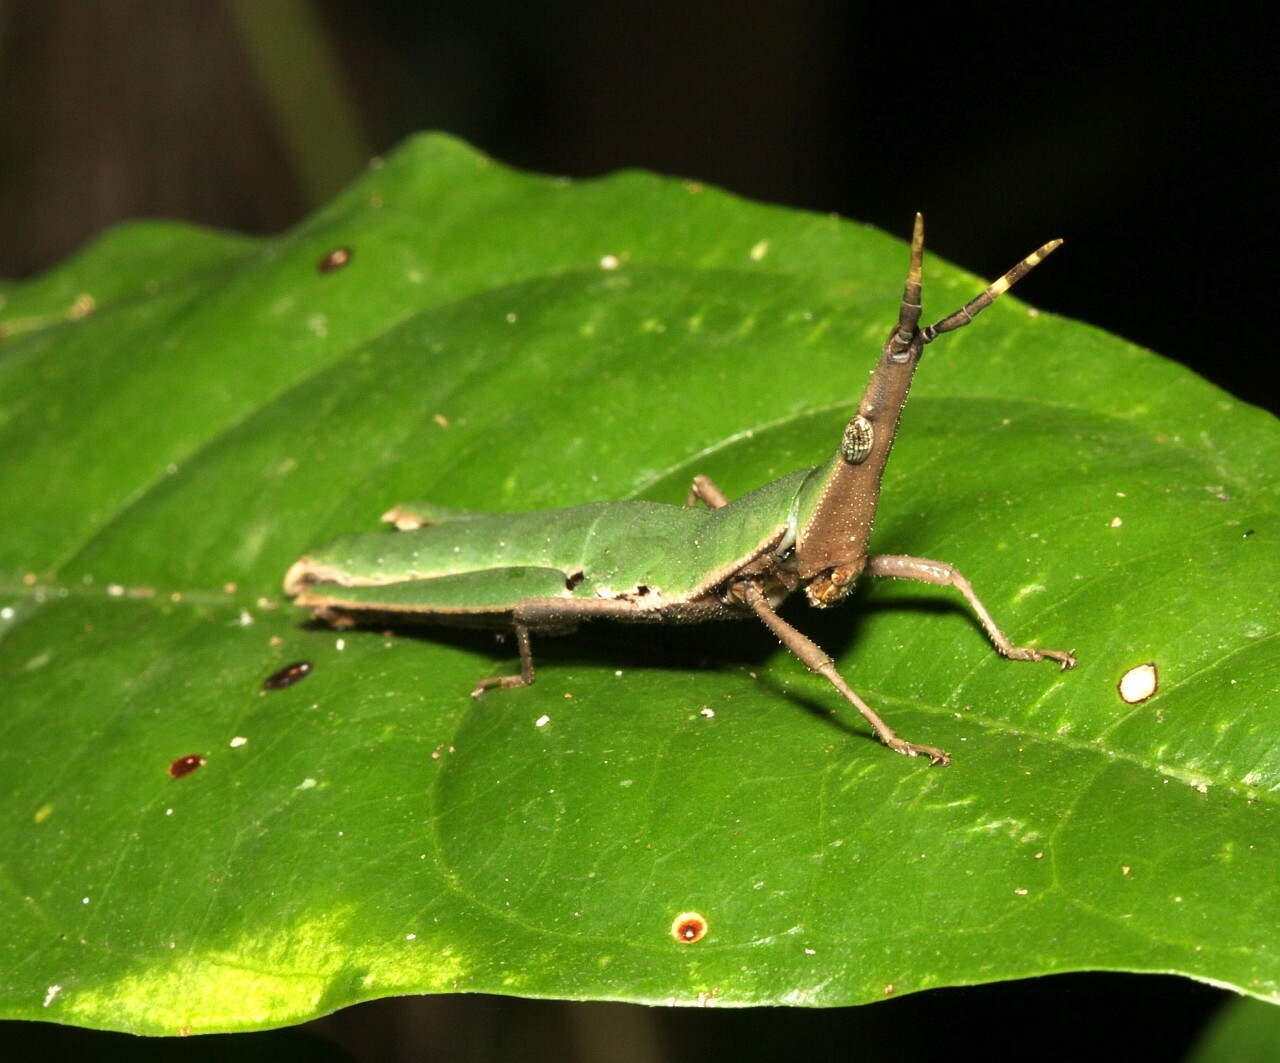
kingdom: Animalia
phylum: Arthropoda
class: Insecta
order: Orthoptera
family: Pyrgomorphidae
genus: Omura
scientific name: Omura congrua
